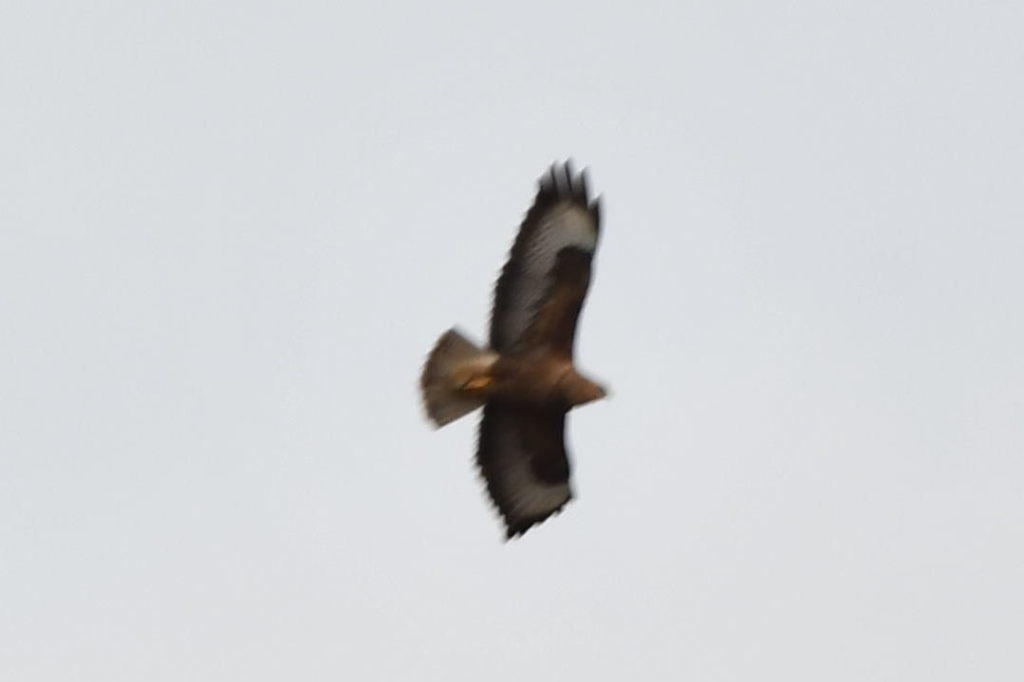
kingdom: Animalia
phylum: Chordata
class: Aves
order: Accipitriformes
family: Accipitridae
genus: Buteo
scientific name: Buteo buteo
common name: Common buzzard
